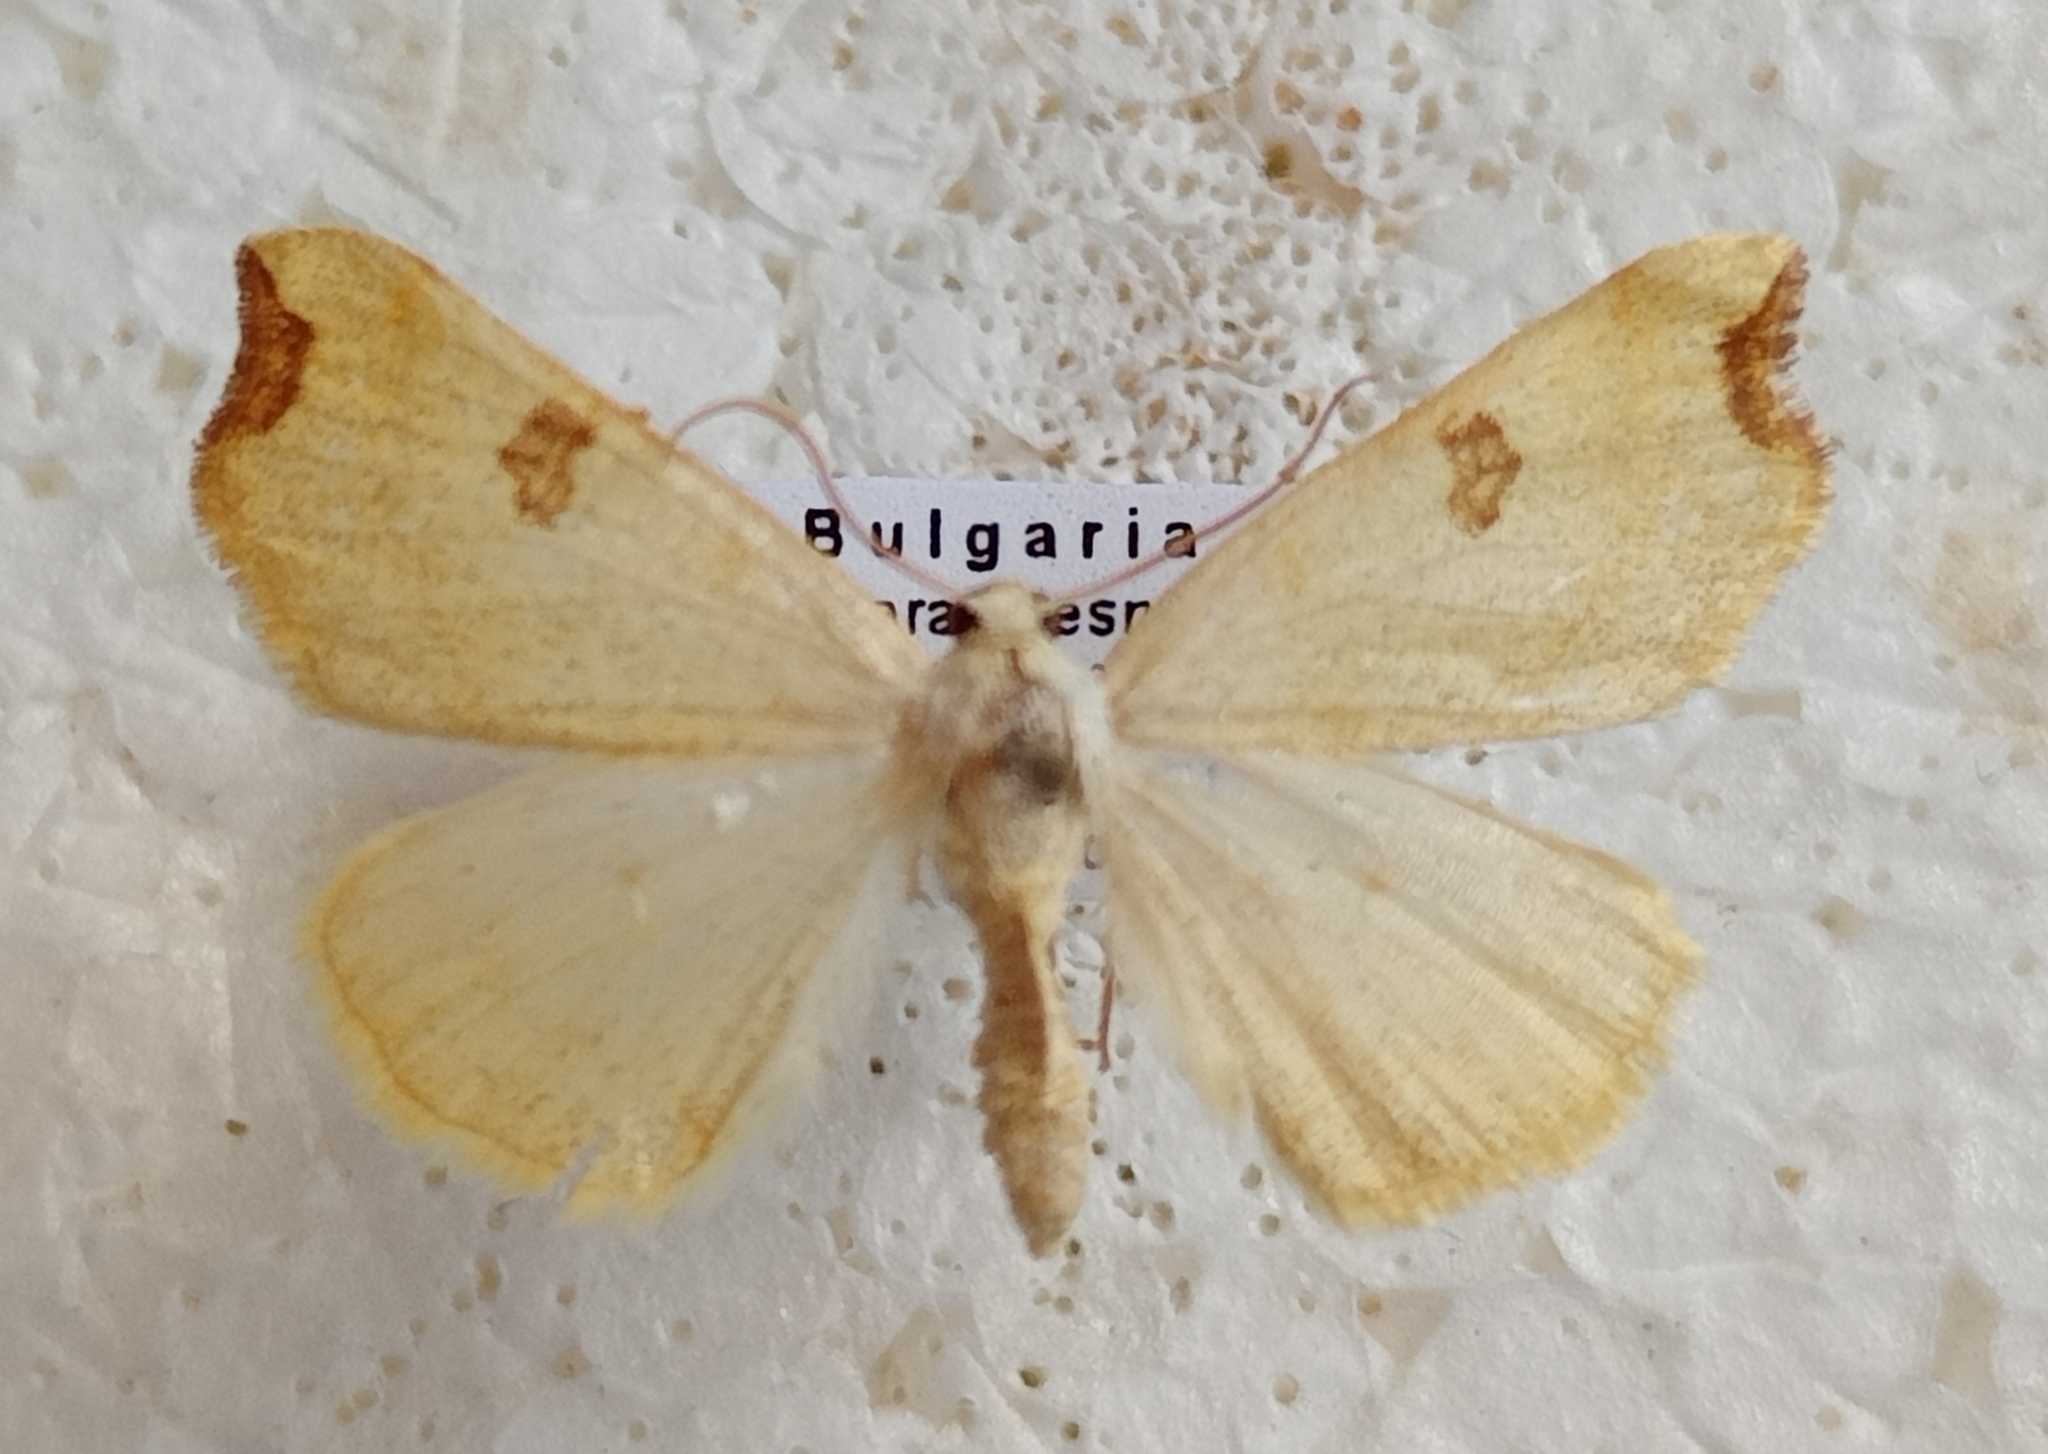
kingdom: Animalia
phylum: Arthropoda
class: Insecta
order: Lepidoptera
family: Geometridae
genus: Eilicrinia
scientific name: Eilicrinia cordiaria
